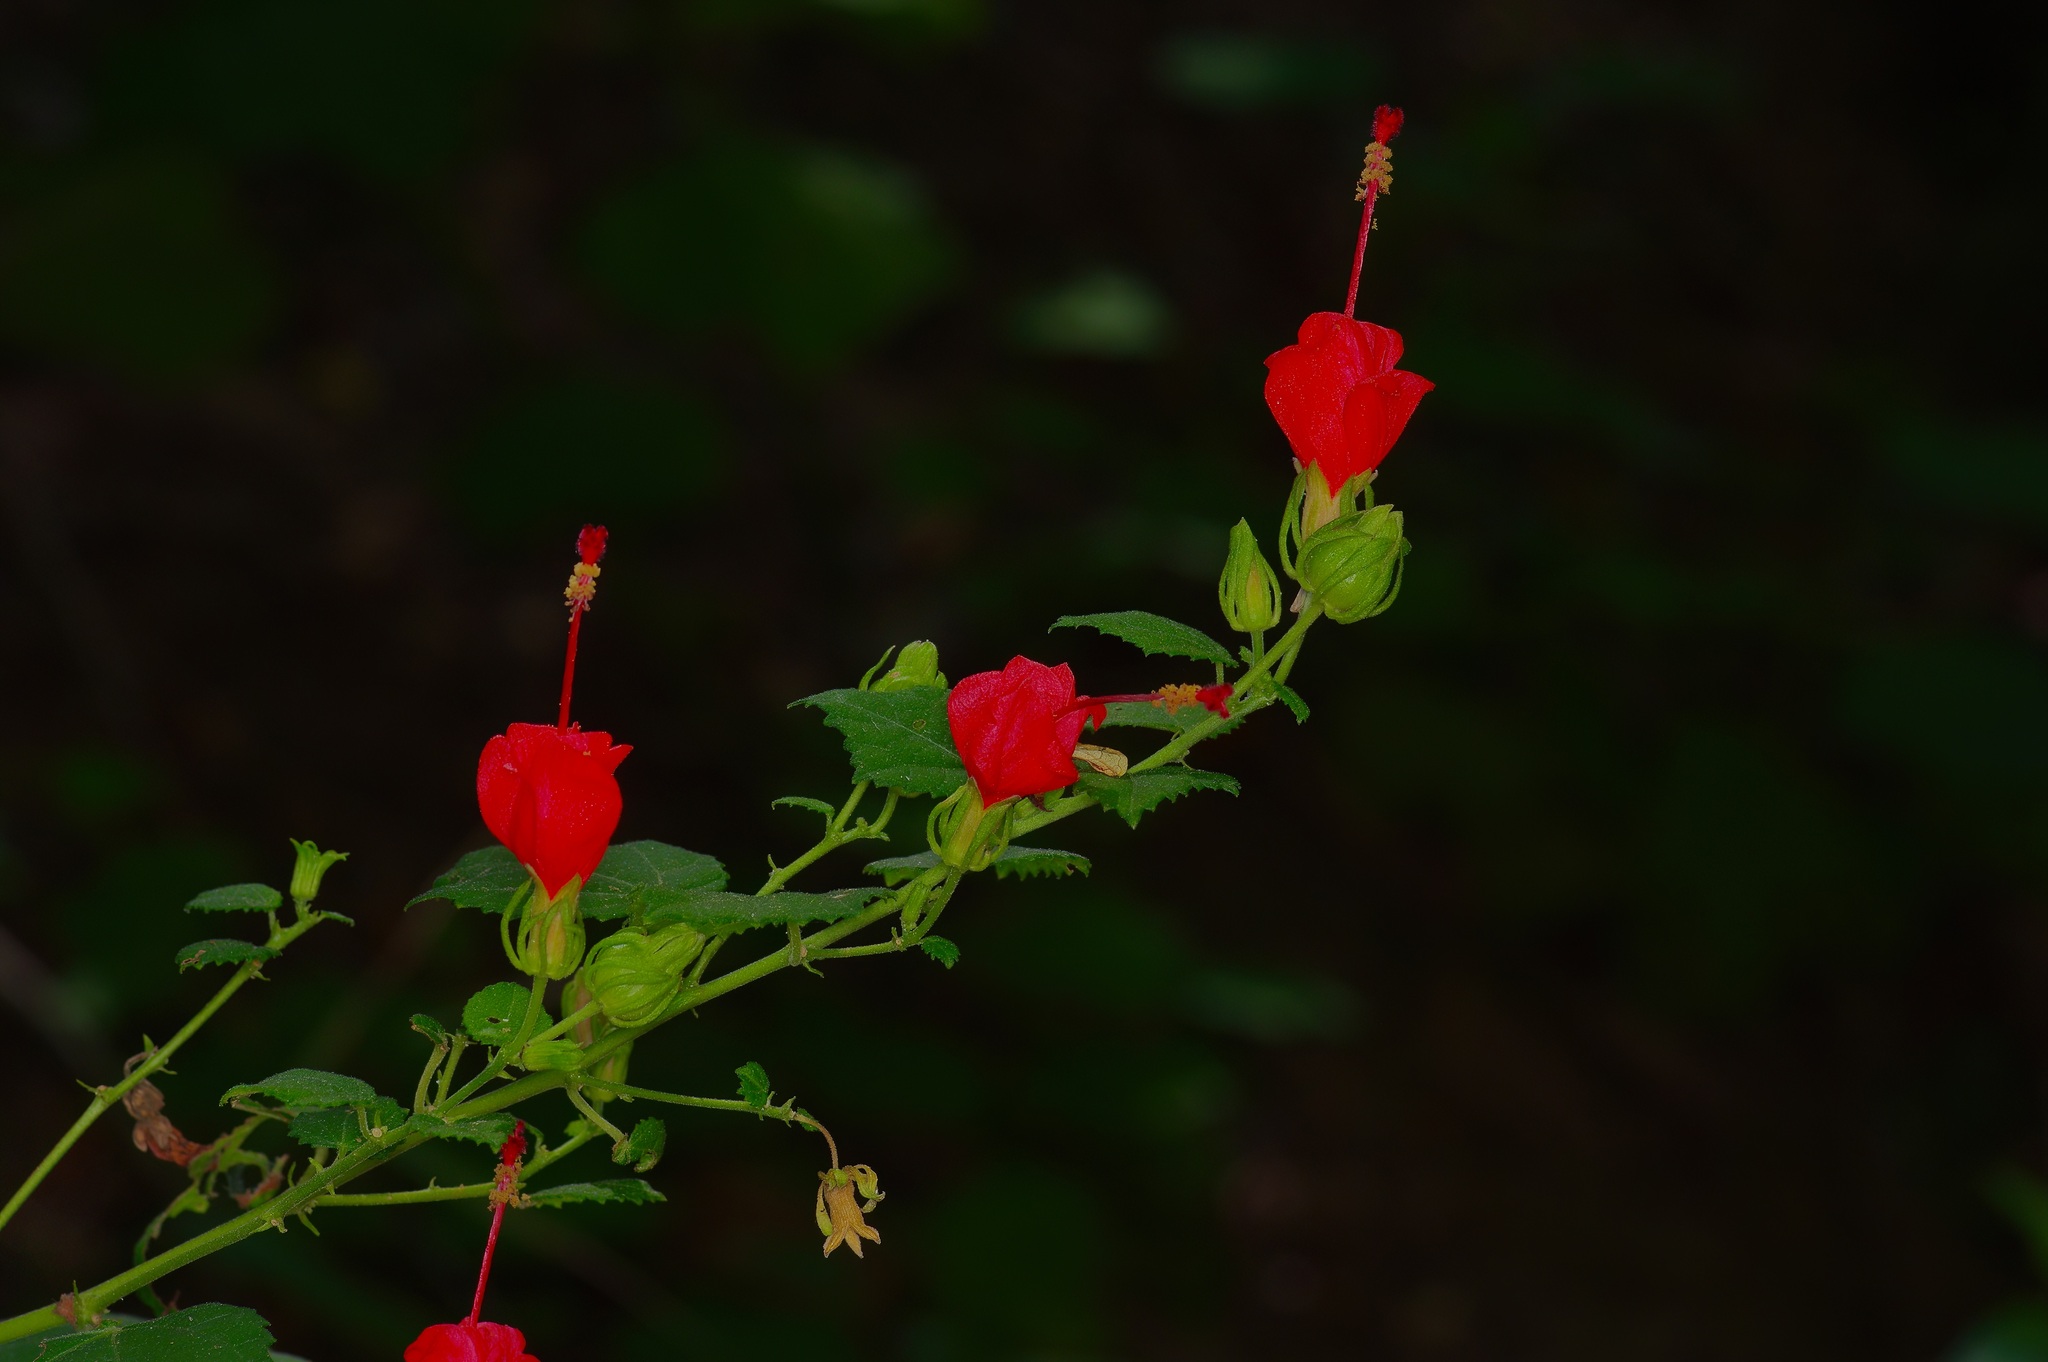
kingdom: Plantae
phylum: Tracheophyta
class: Magnoliopsida
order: Malvales
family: Malvaceae
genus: Malvaviscus
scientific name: Malvaviscus arboreus
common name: Wax mallow
